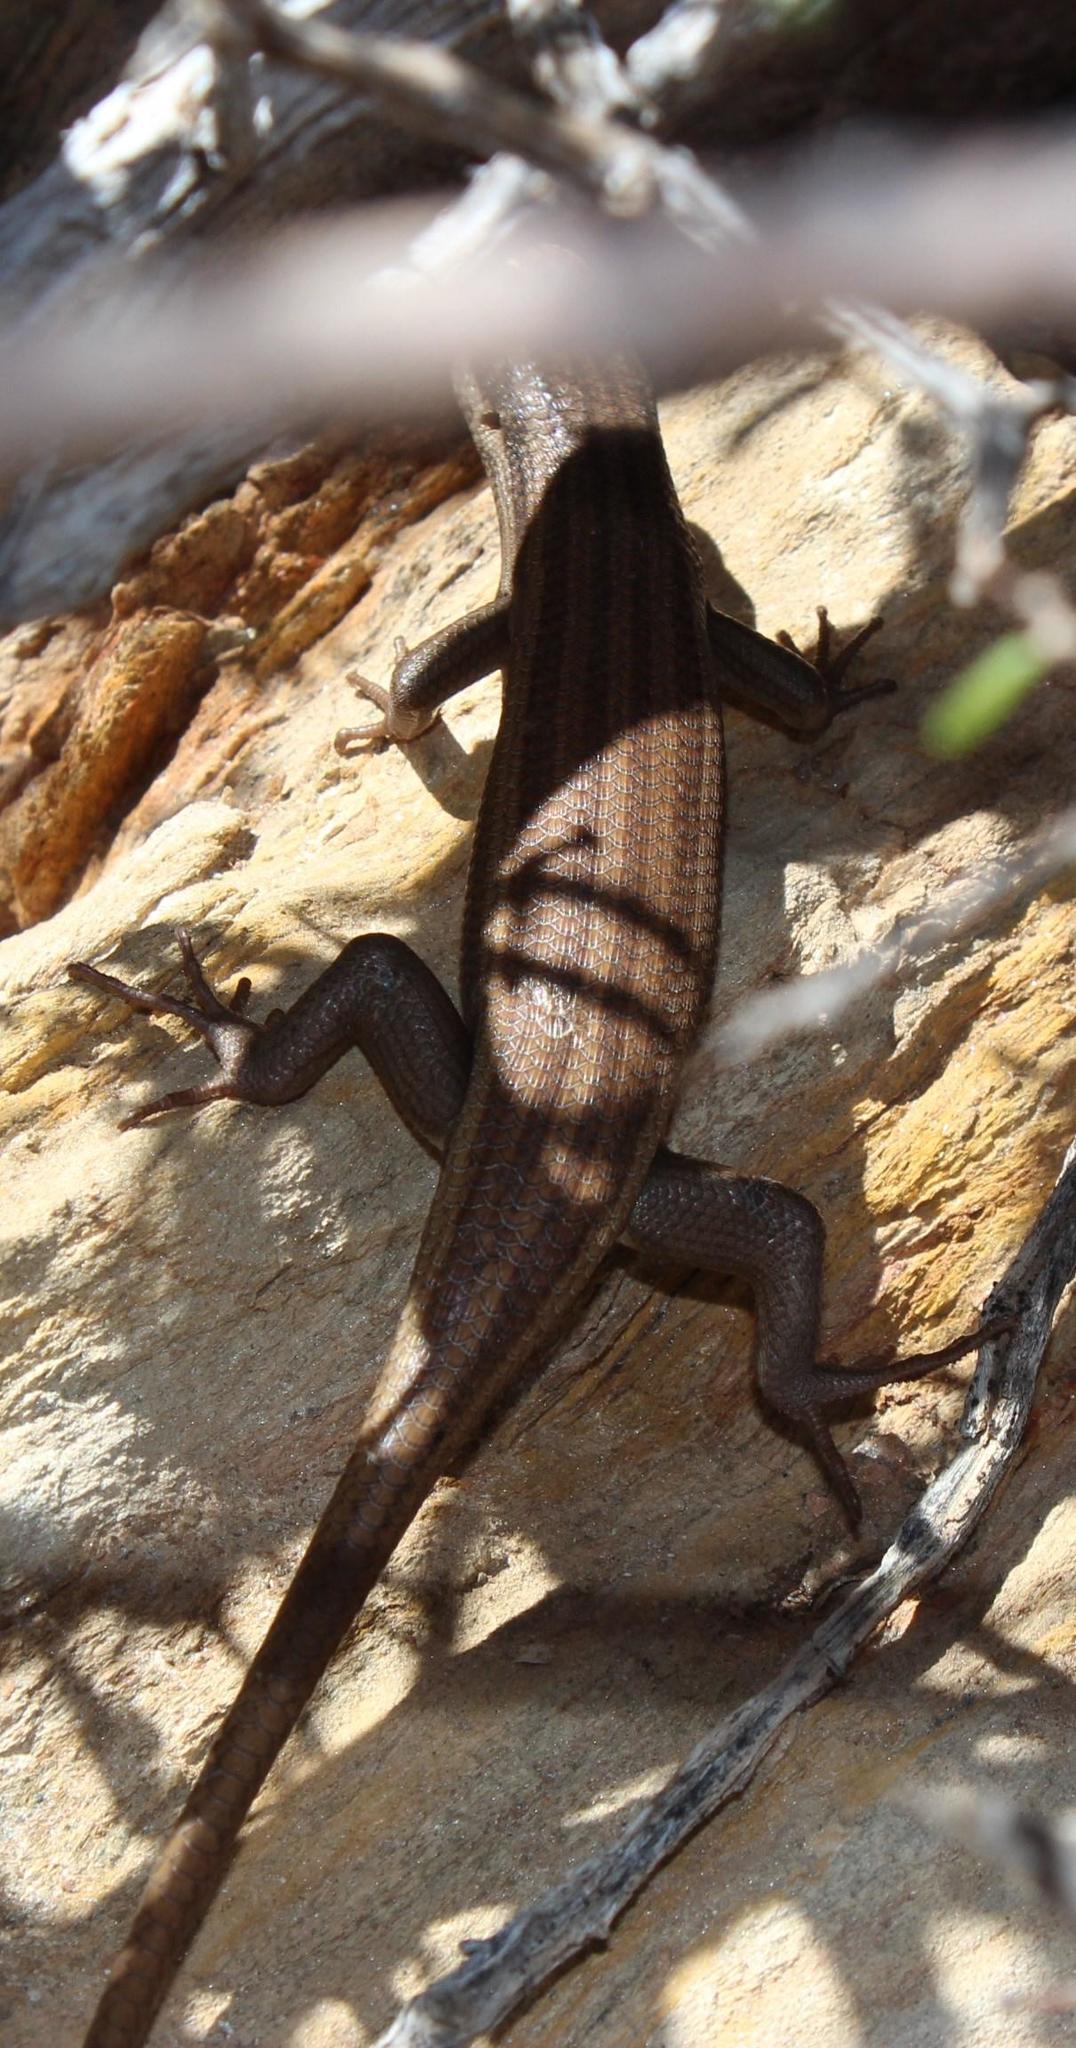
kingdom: Animalia
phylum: Chordata
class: Squamata
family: Scincidae
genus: Trachylepis
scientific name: Trachylepis sulcata
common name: Western rock skink
